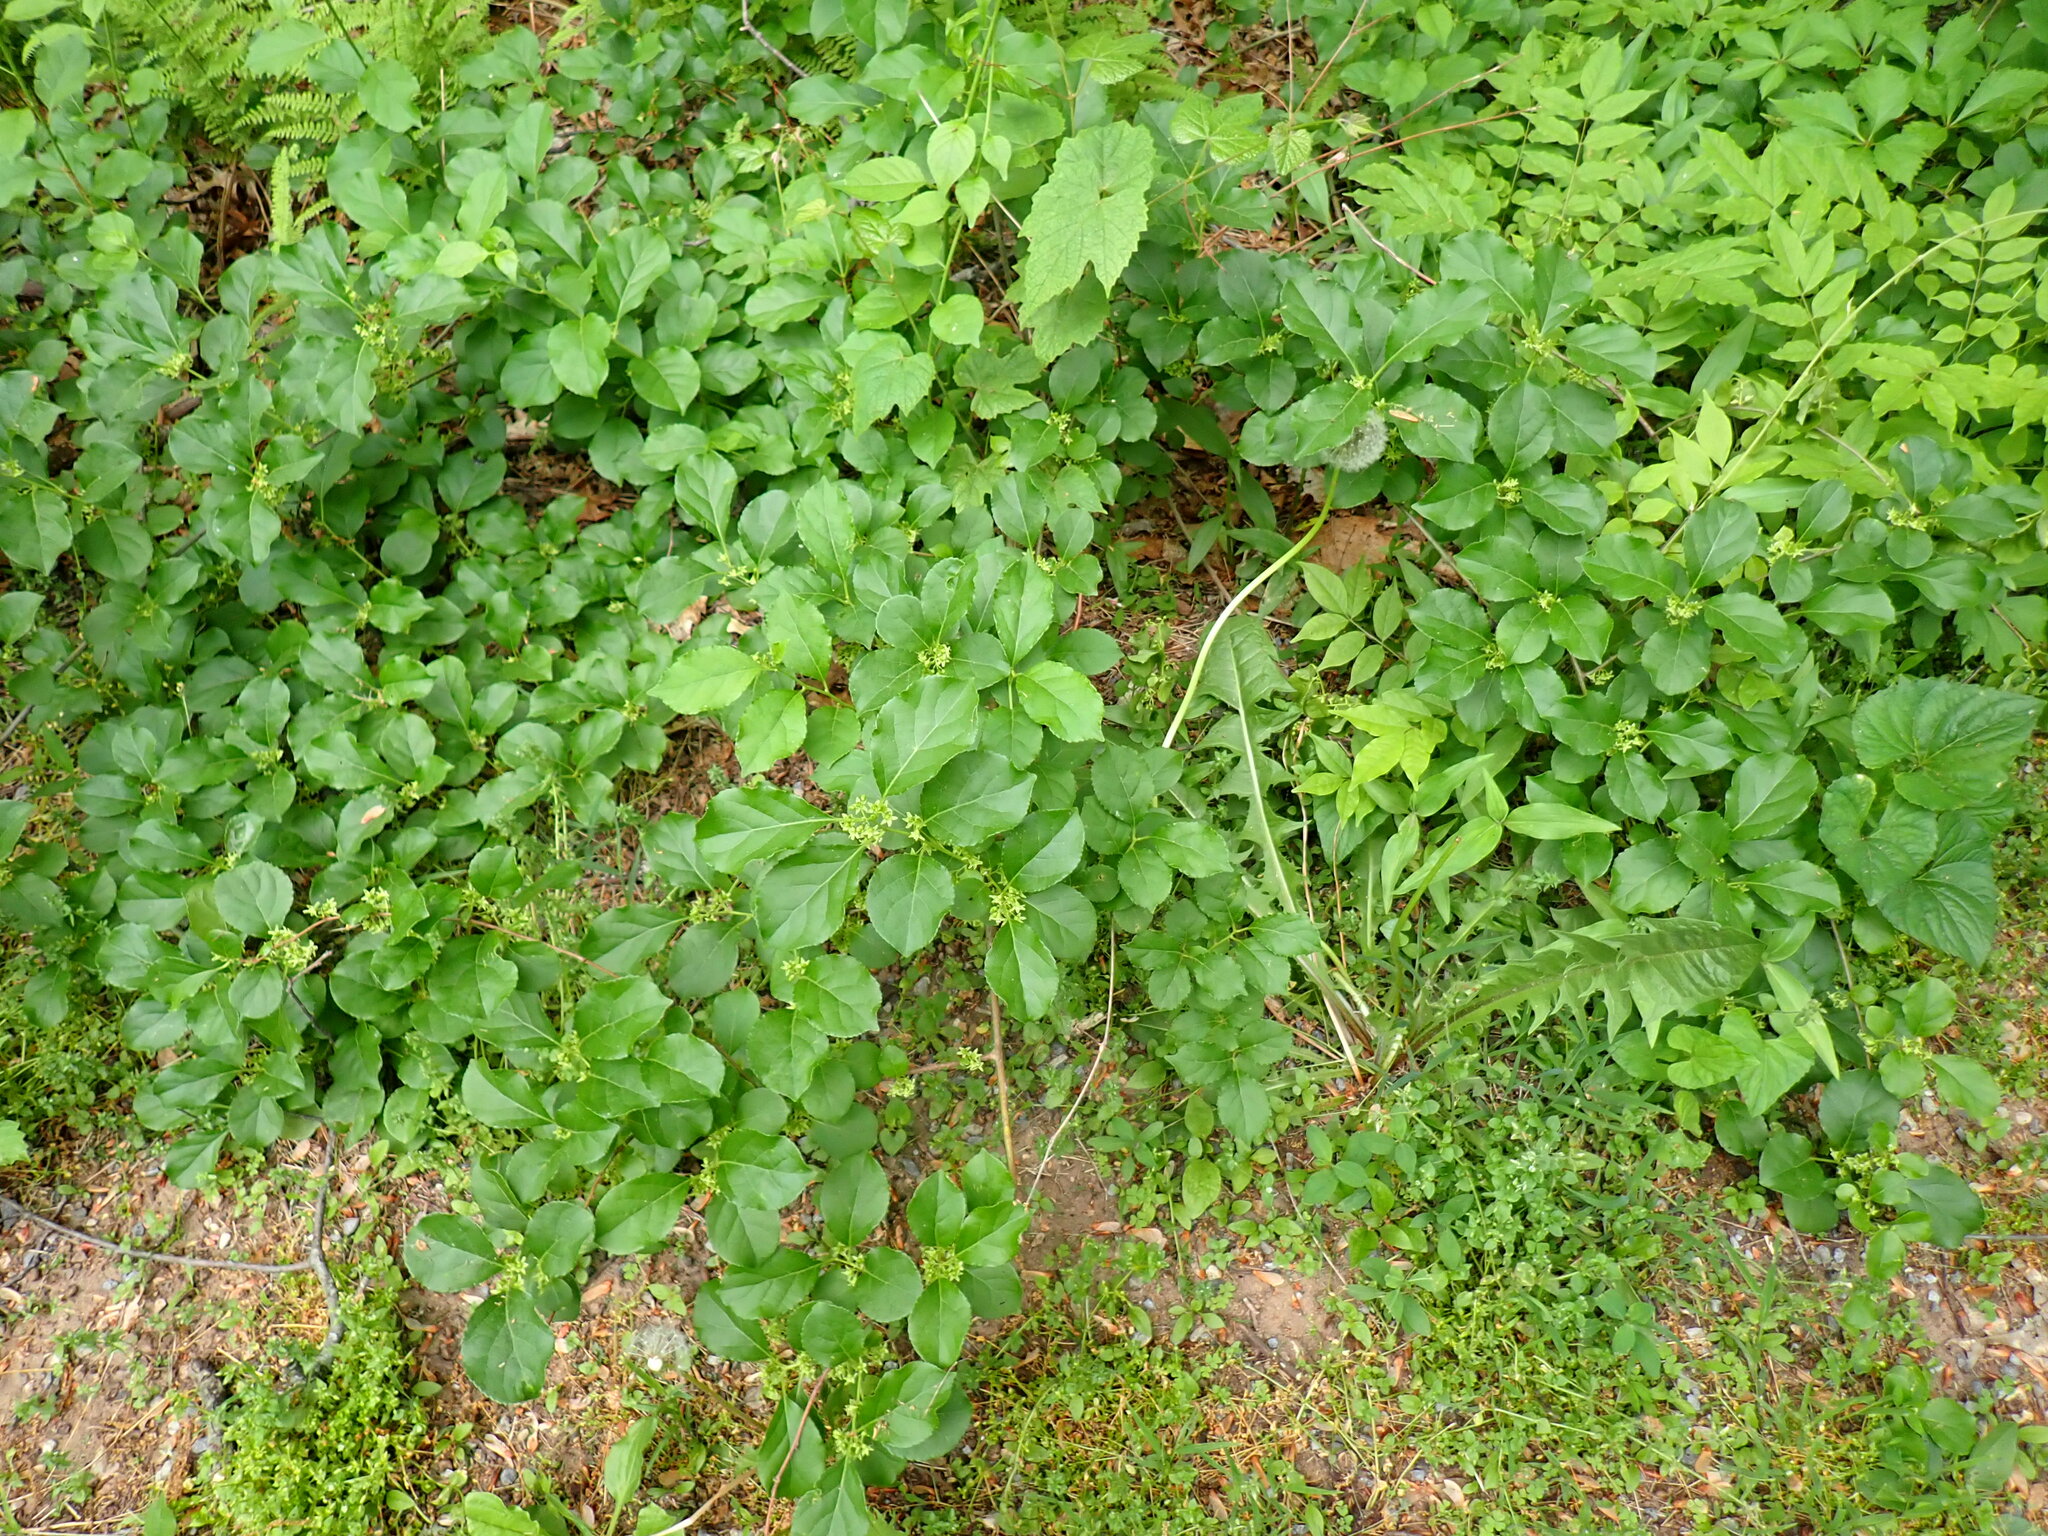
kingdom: Plantae
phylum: Tracheophyta
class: Magnoliopsida
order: Celastrales
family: Celastraceae
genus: Celastrus
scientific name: Celastrus orbiculatus
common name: Oriental bittersweet
